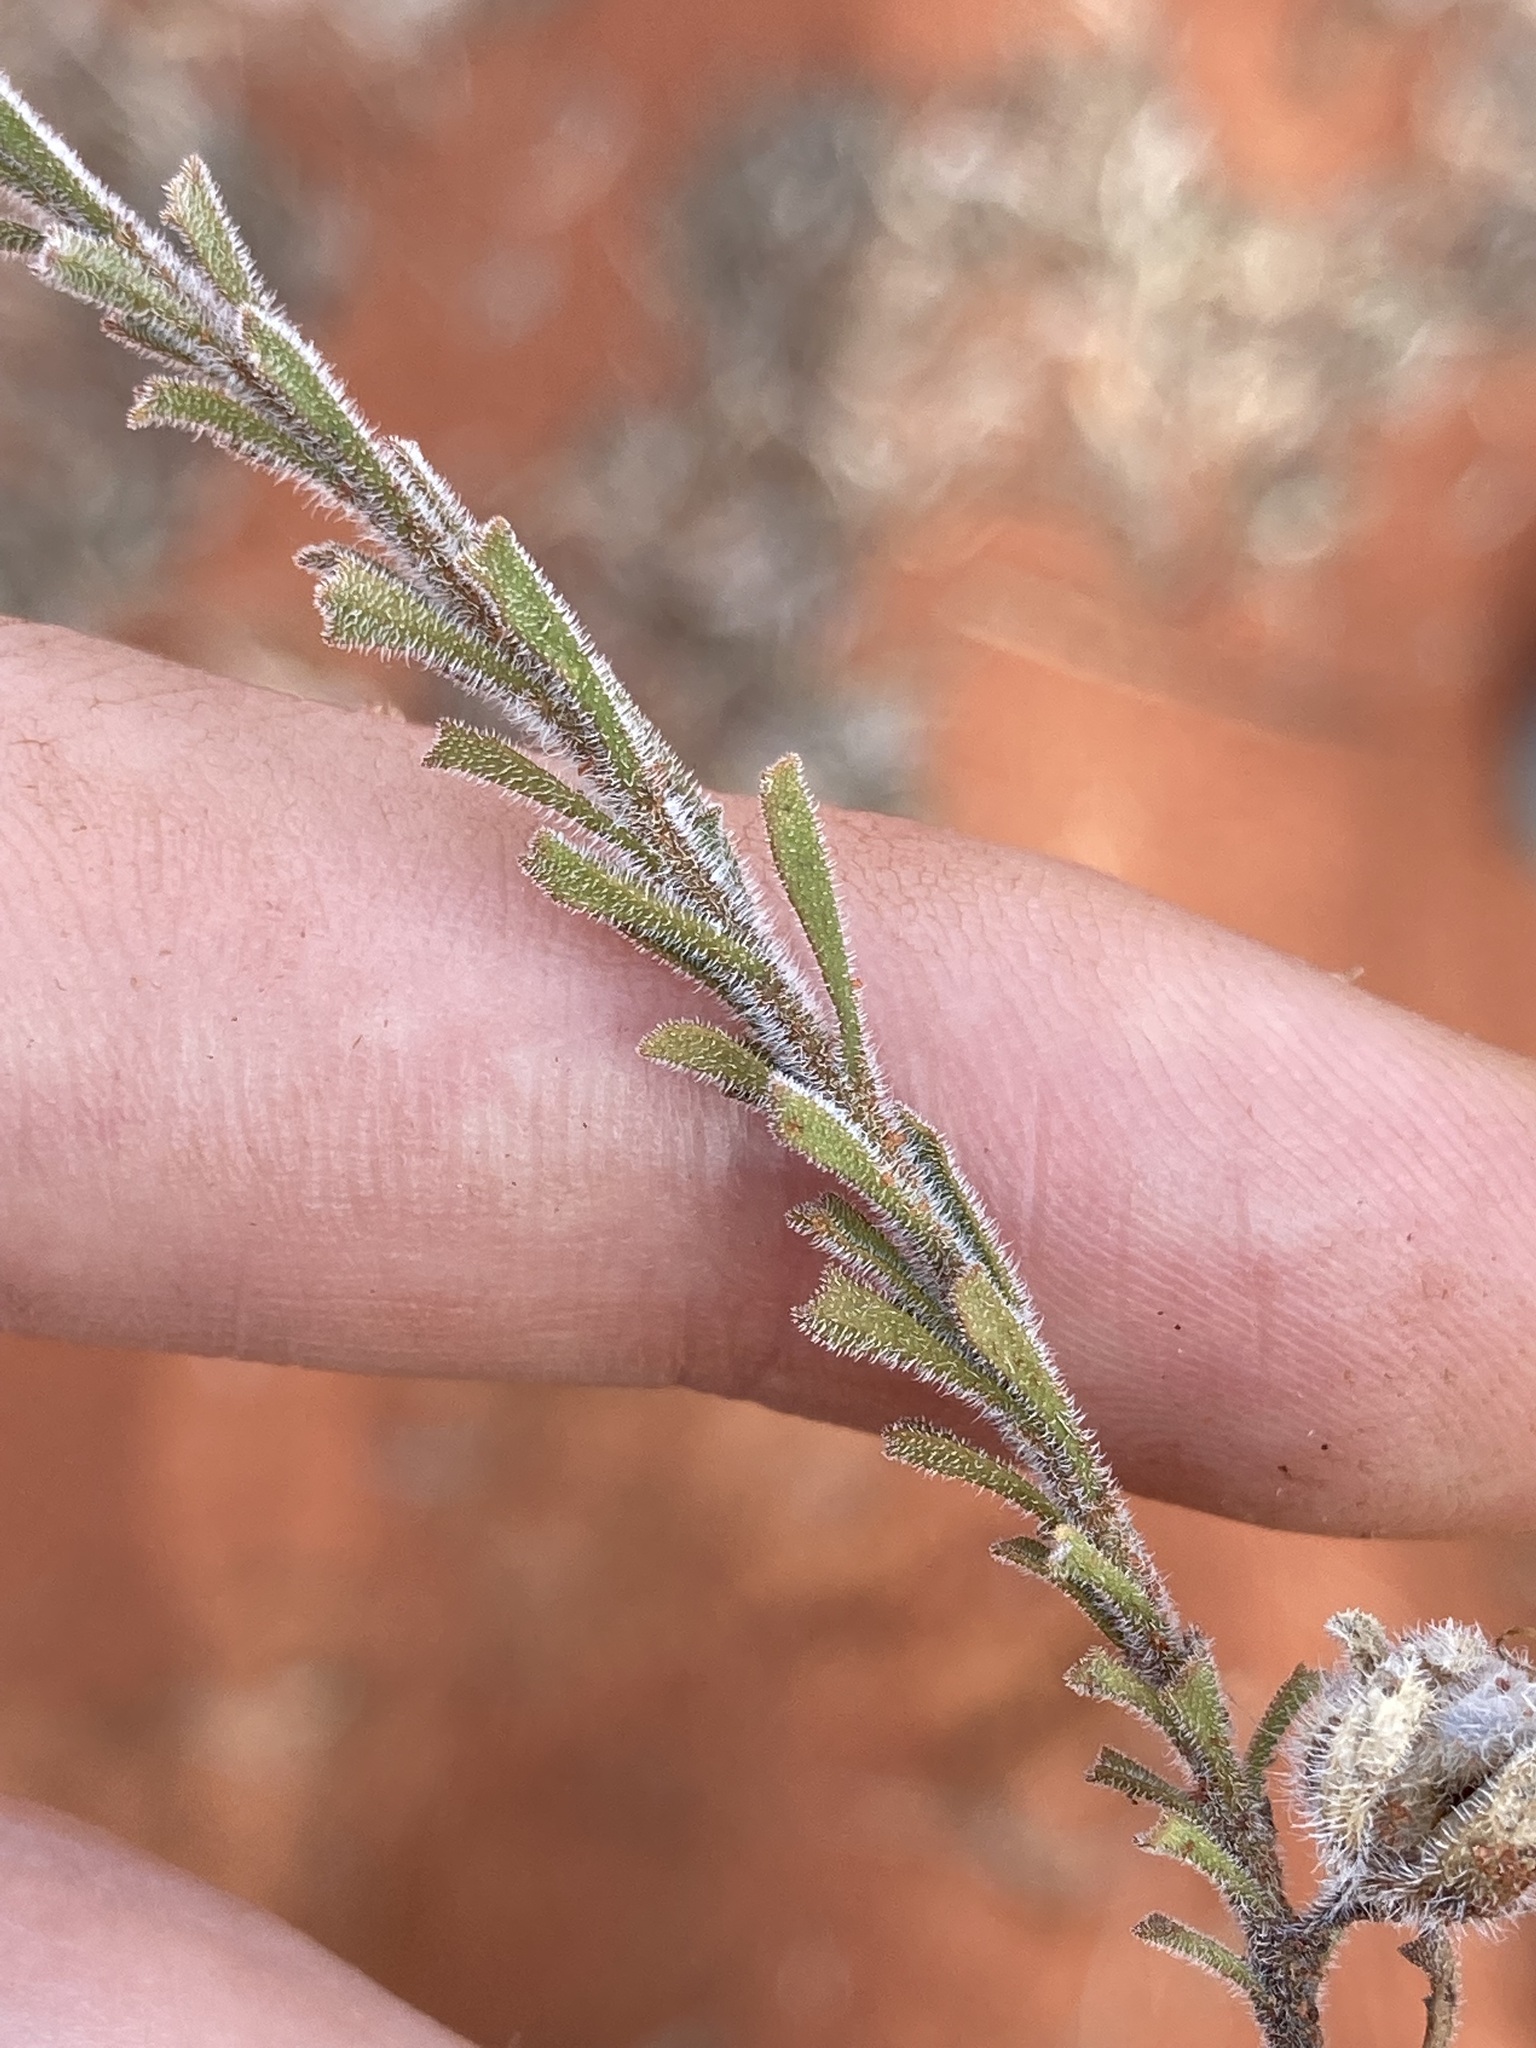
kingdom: Plantae
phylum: Tracheophyta
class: Magnoliopsida
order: Lamiales
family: Scrophulariaceae
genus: Eremophila
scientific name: Eremophila battii
